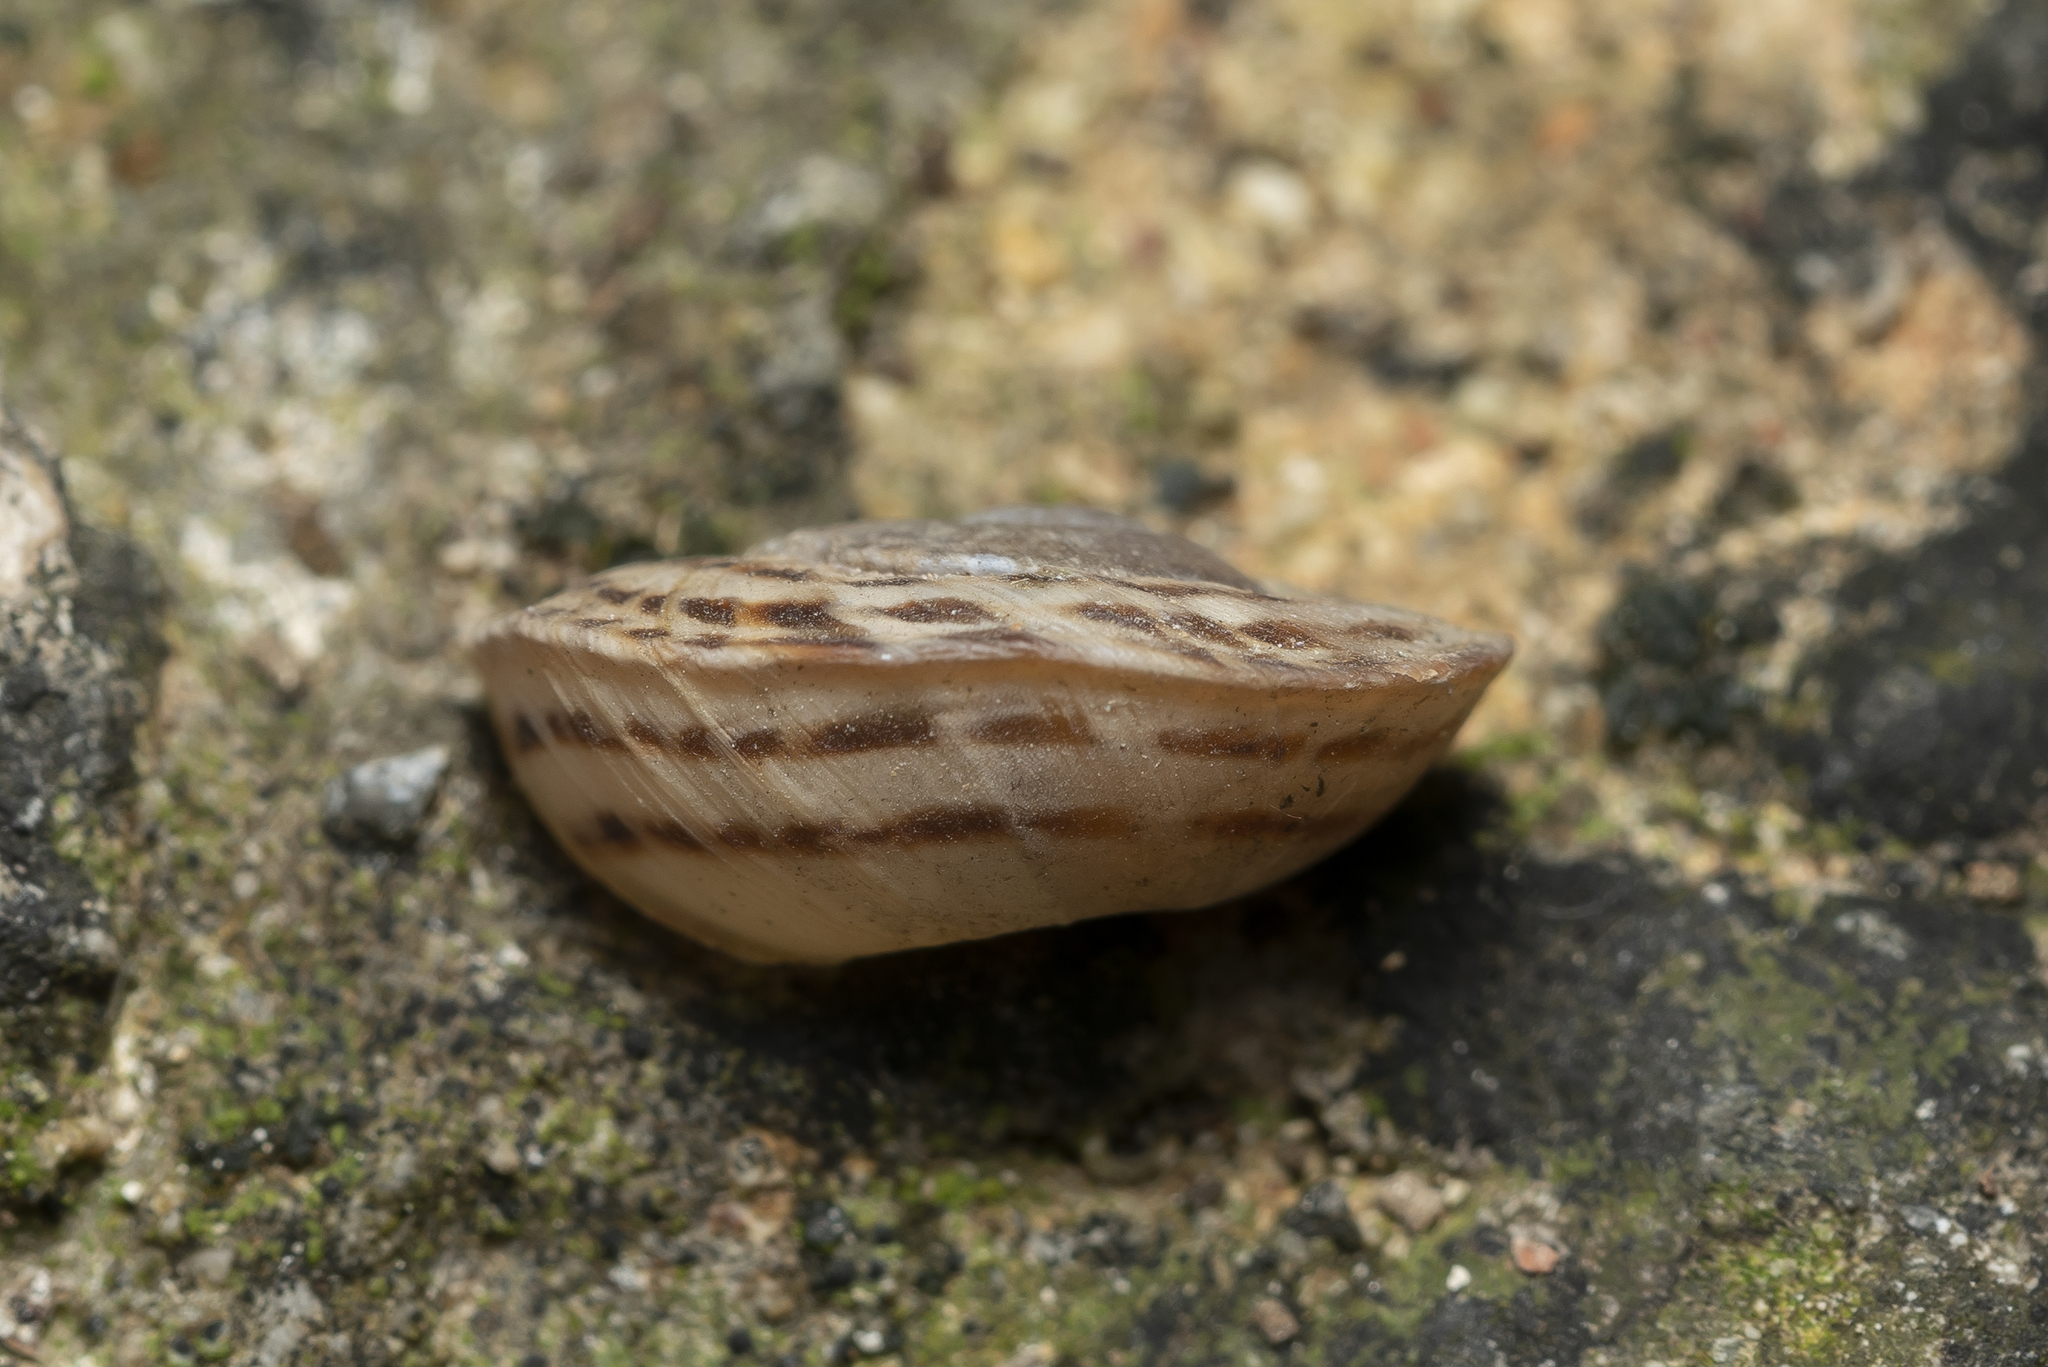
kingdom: Animalia
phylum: Mollusca
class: Gastropoda
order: Stylommatophora
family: Helicidae
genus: Levantina
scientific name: Levantina spiriplana
